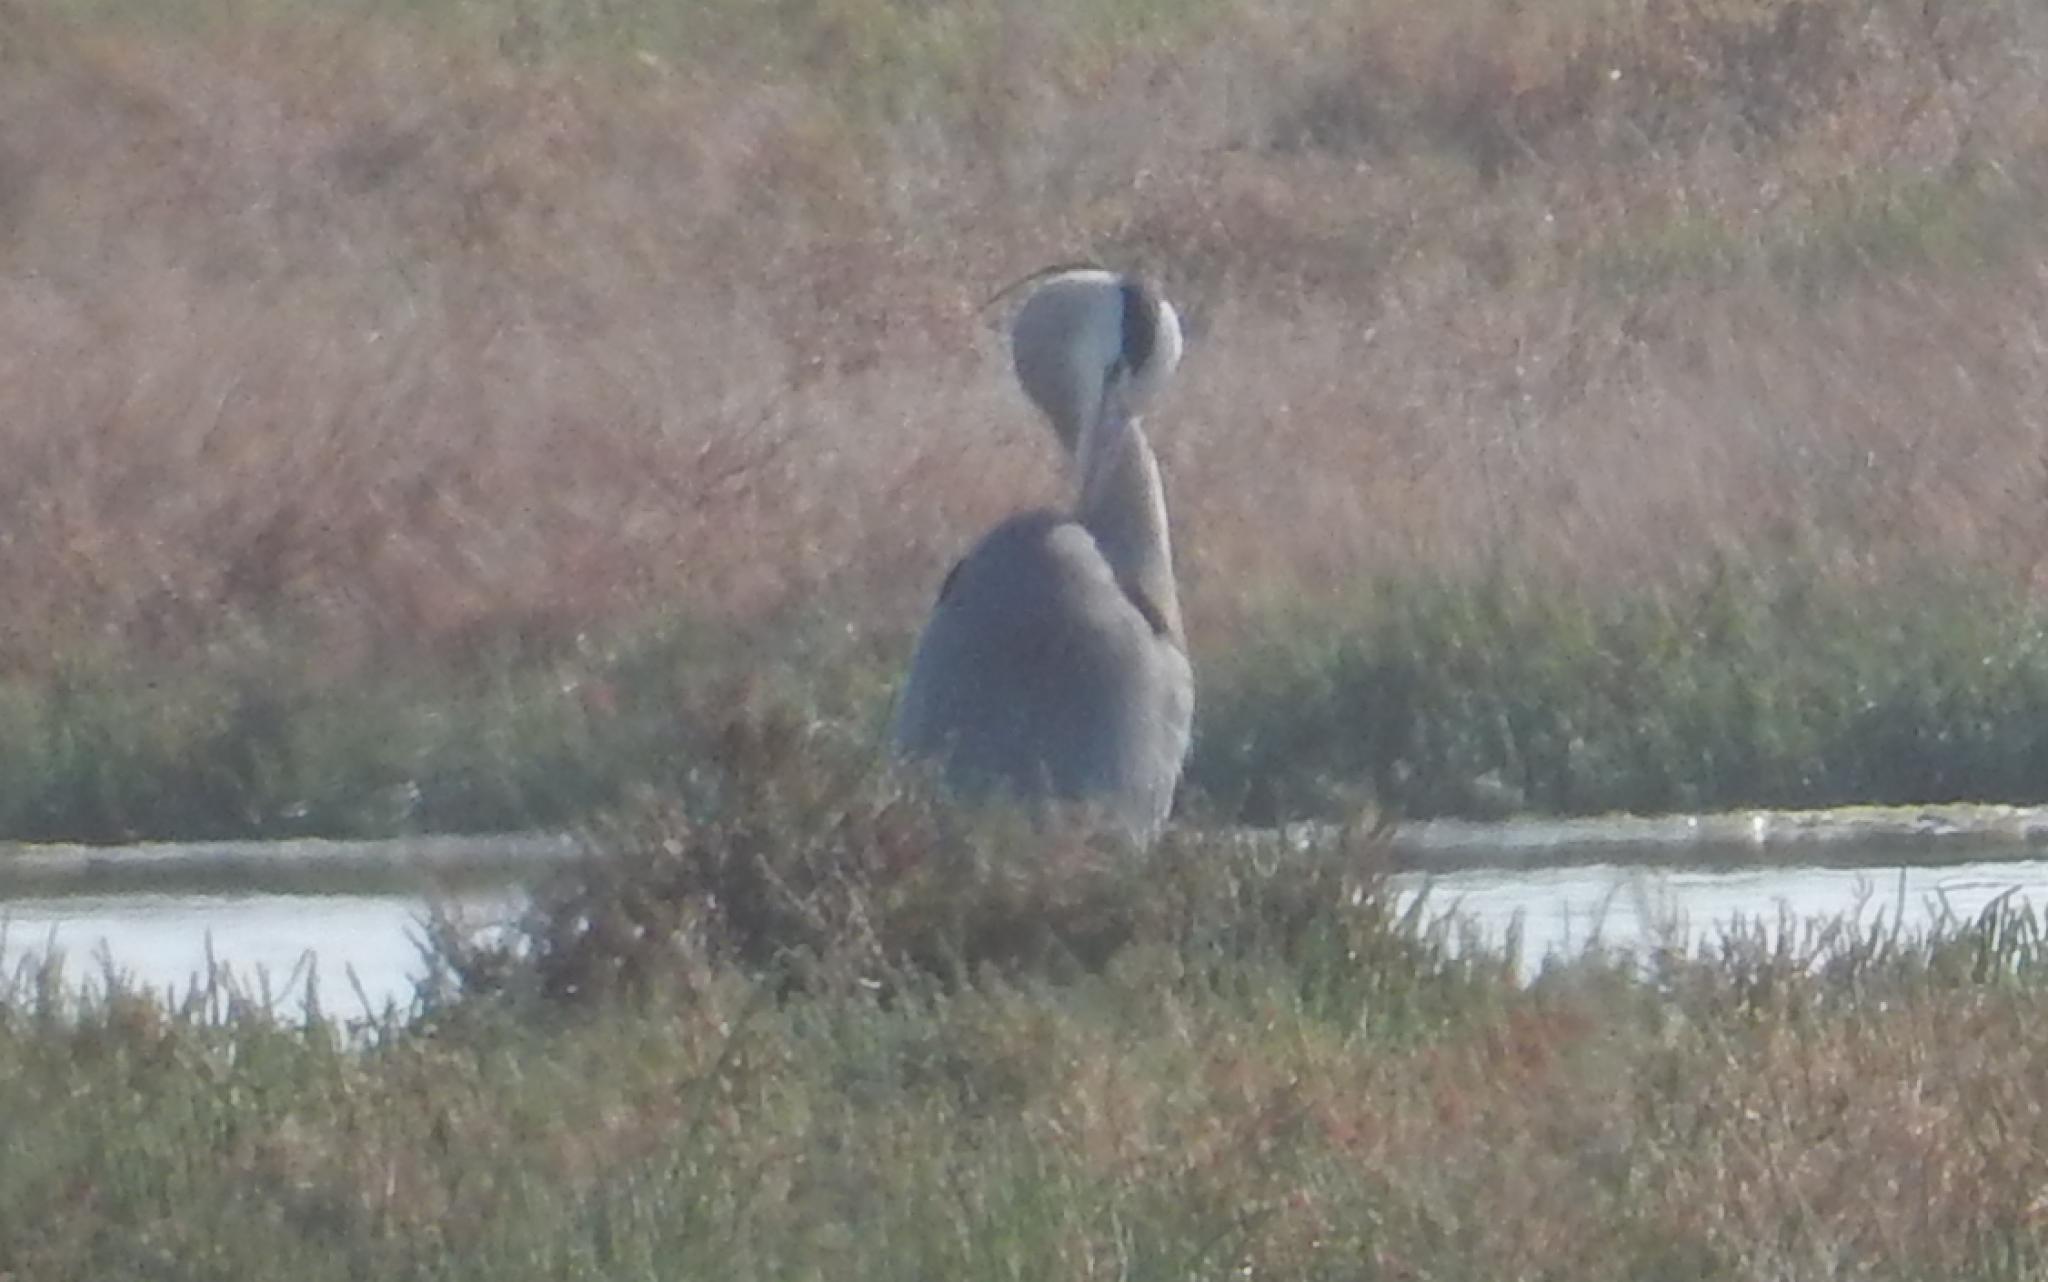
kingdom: Animalia
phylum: Chordata
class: Aves
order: Pelecaniformes
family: Ardeidae
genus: Ardea
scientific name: Ardea cinerea
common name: Grey heron
